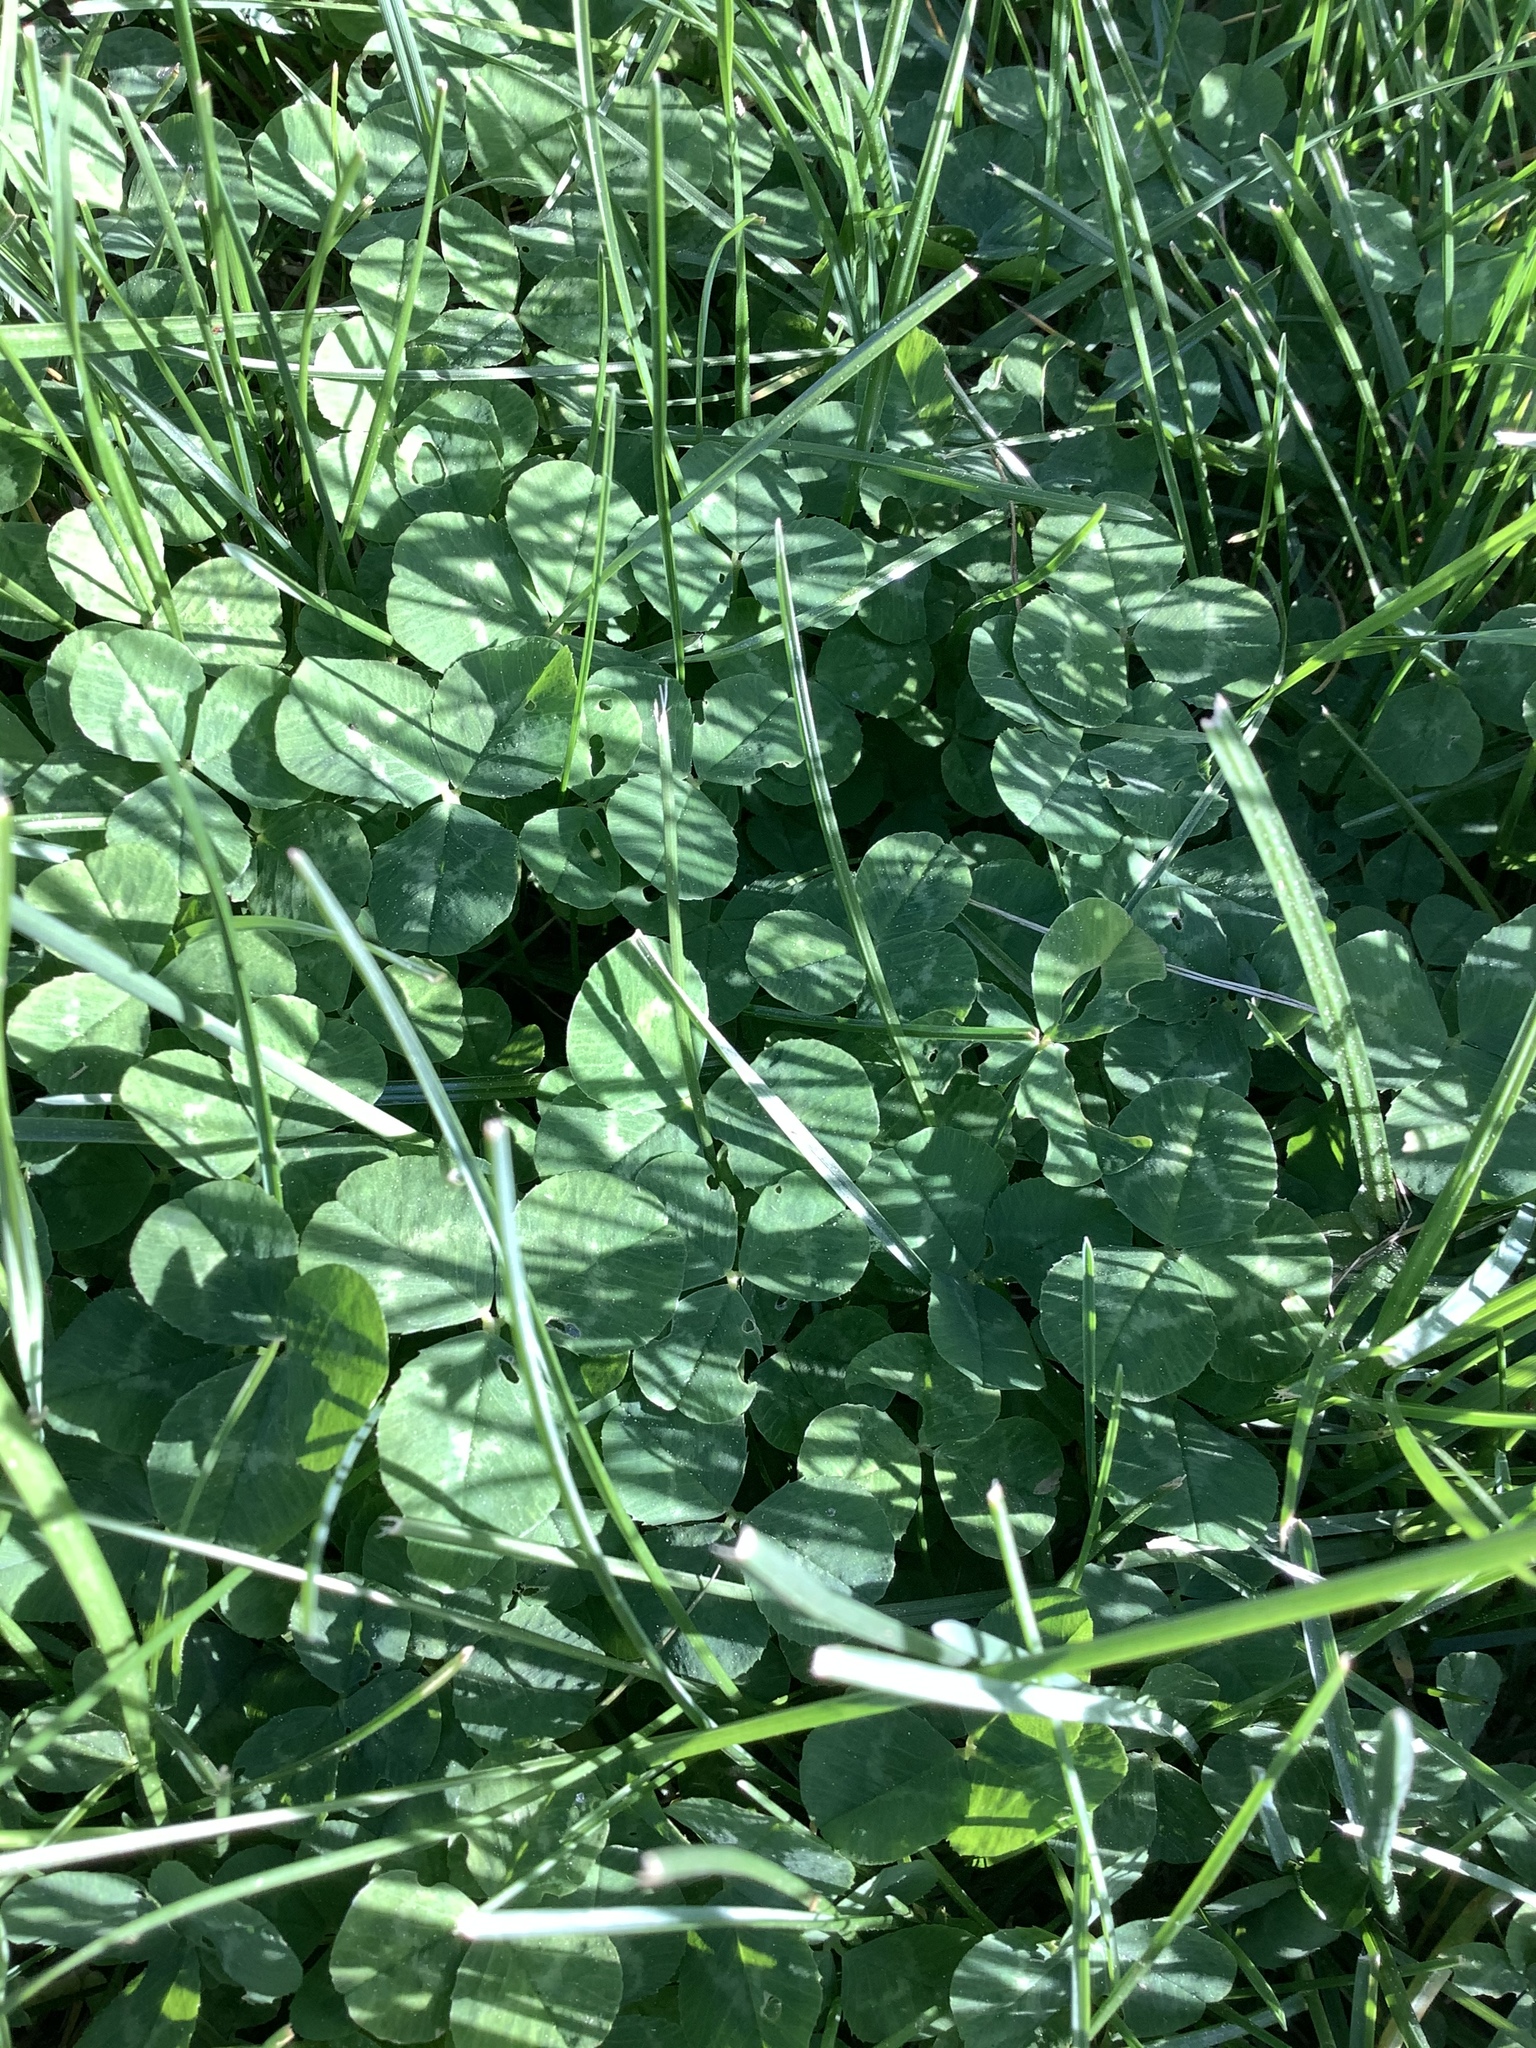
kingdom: Plantae
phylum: Tracheophyta
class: Magnoliopsida
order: Fabales
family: Fabaceae
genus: Trifolium
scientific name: Trifolium repens
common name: White clover
